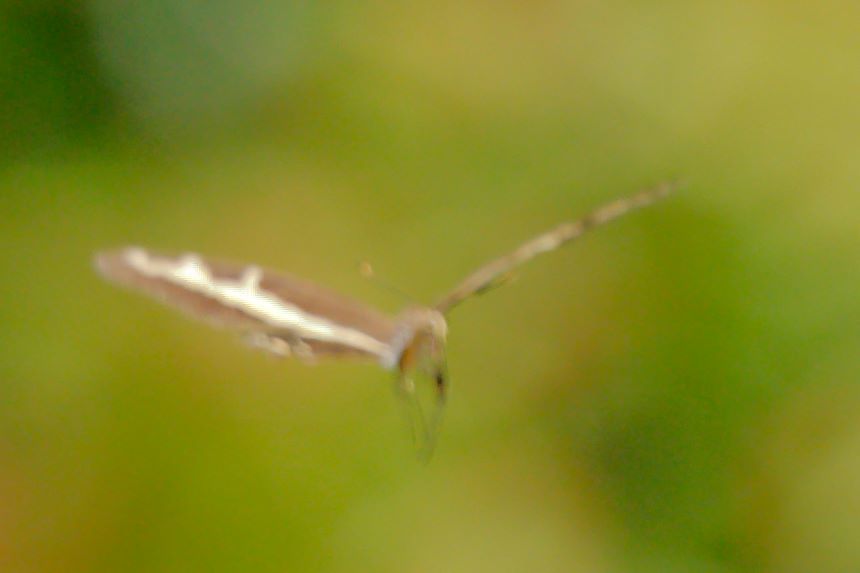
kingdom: Animalia
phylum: Arthropoda
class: Insecta
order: Lepidoptera
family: Papilionidae
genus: Papilio
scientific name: Papilio andraemon
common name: Bahaman swallowtail
